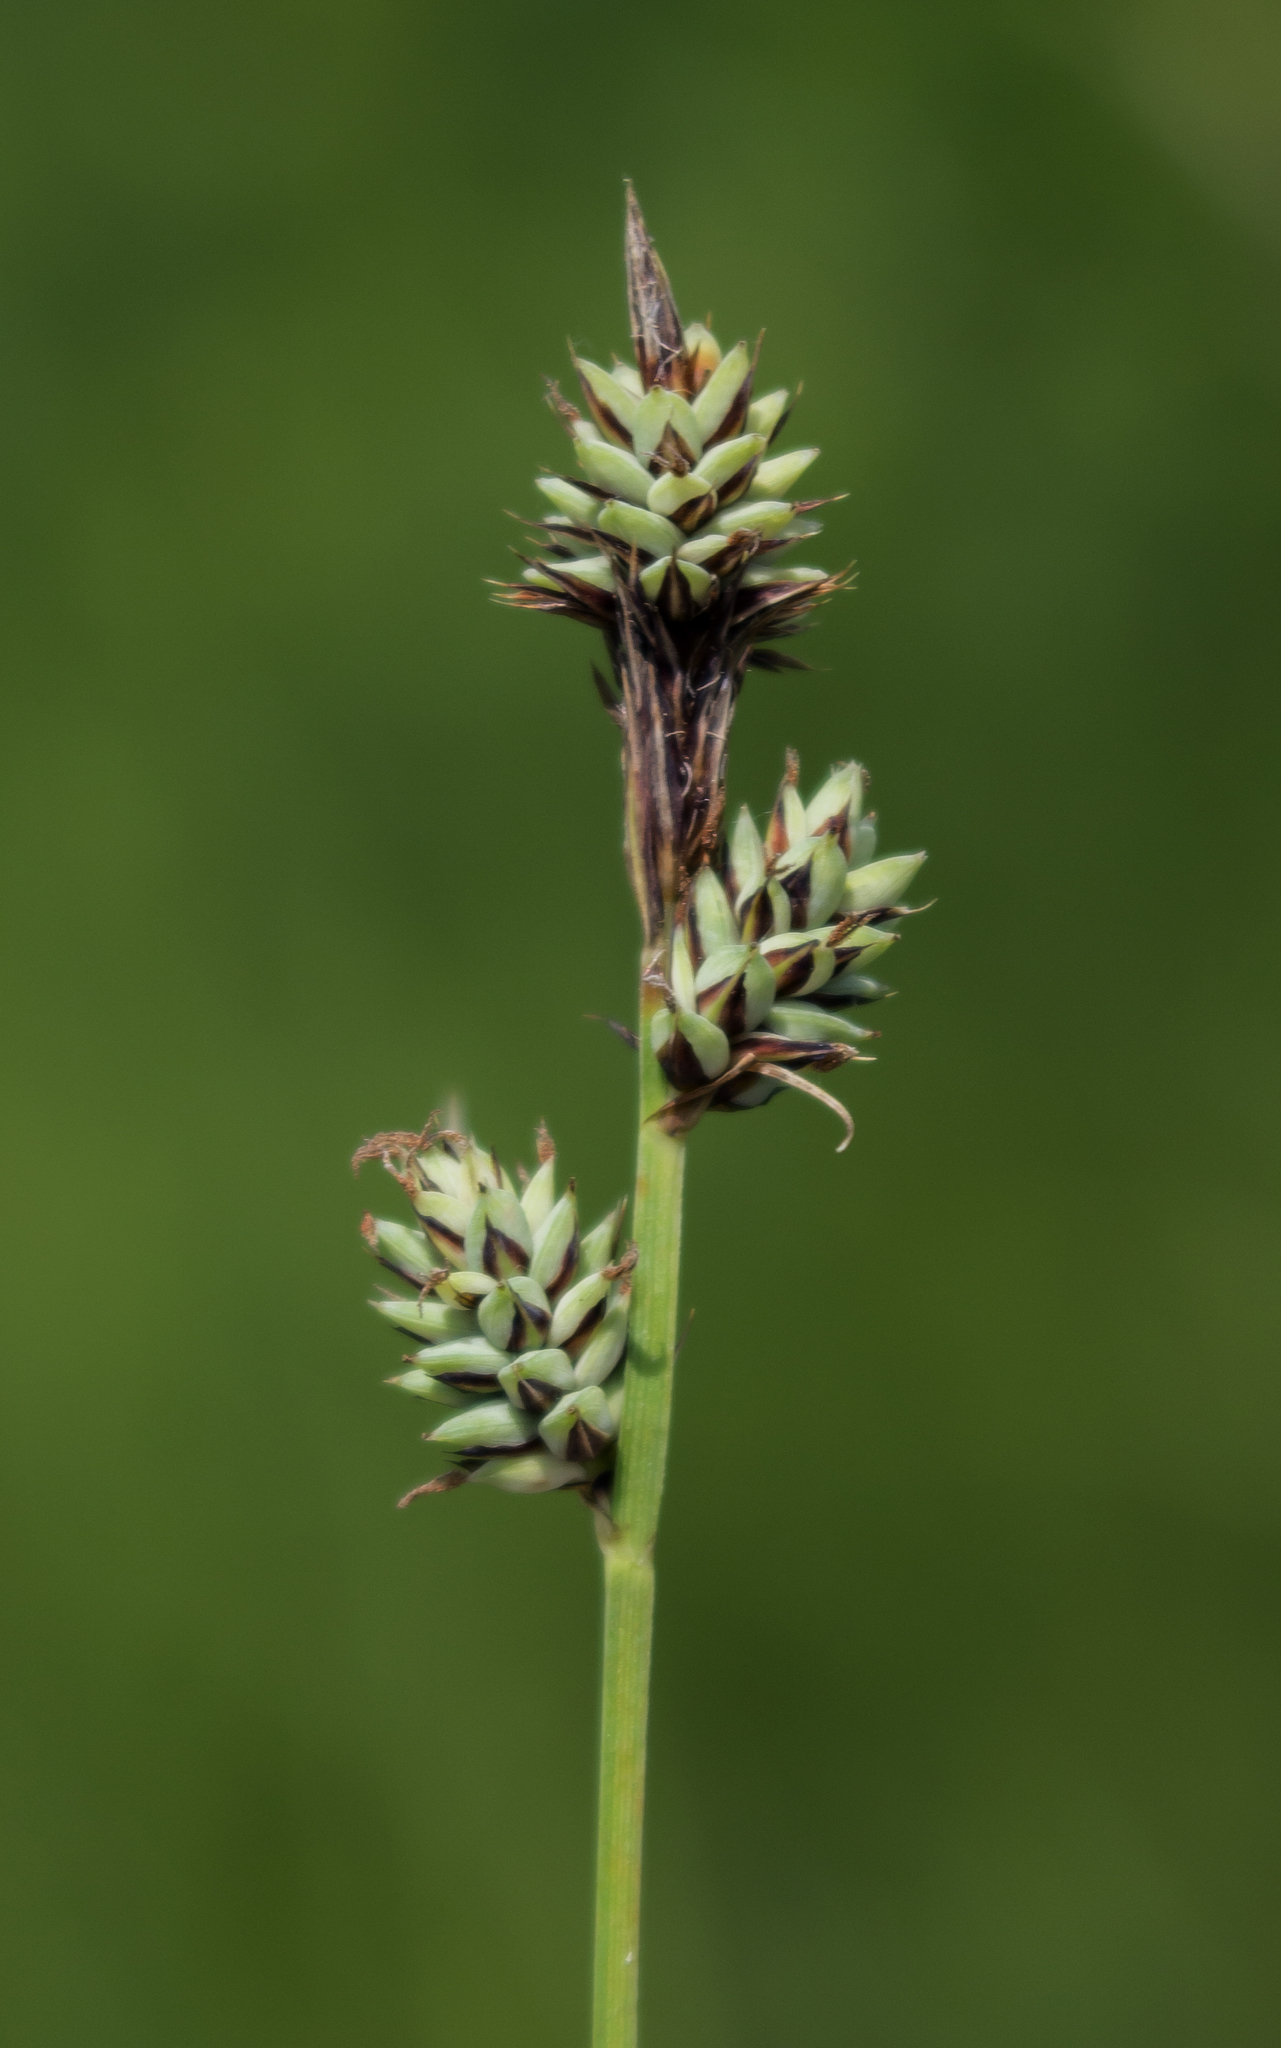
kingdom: Plantae
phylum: Tracheophyta
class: Liliopsida
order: Poales
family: Cyperaceae
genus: Carex
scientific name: Carex buxbaumii
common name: Club sedge
